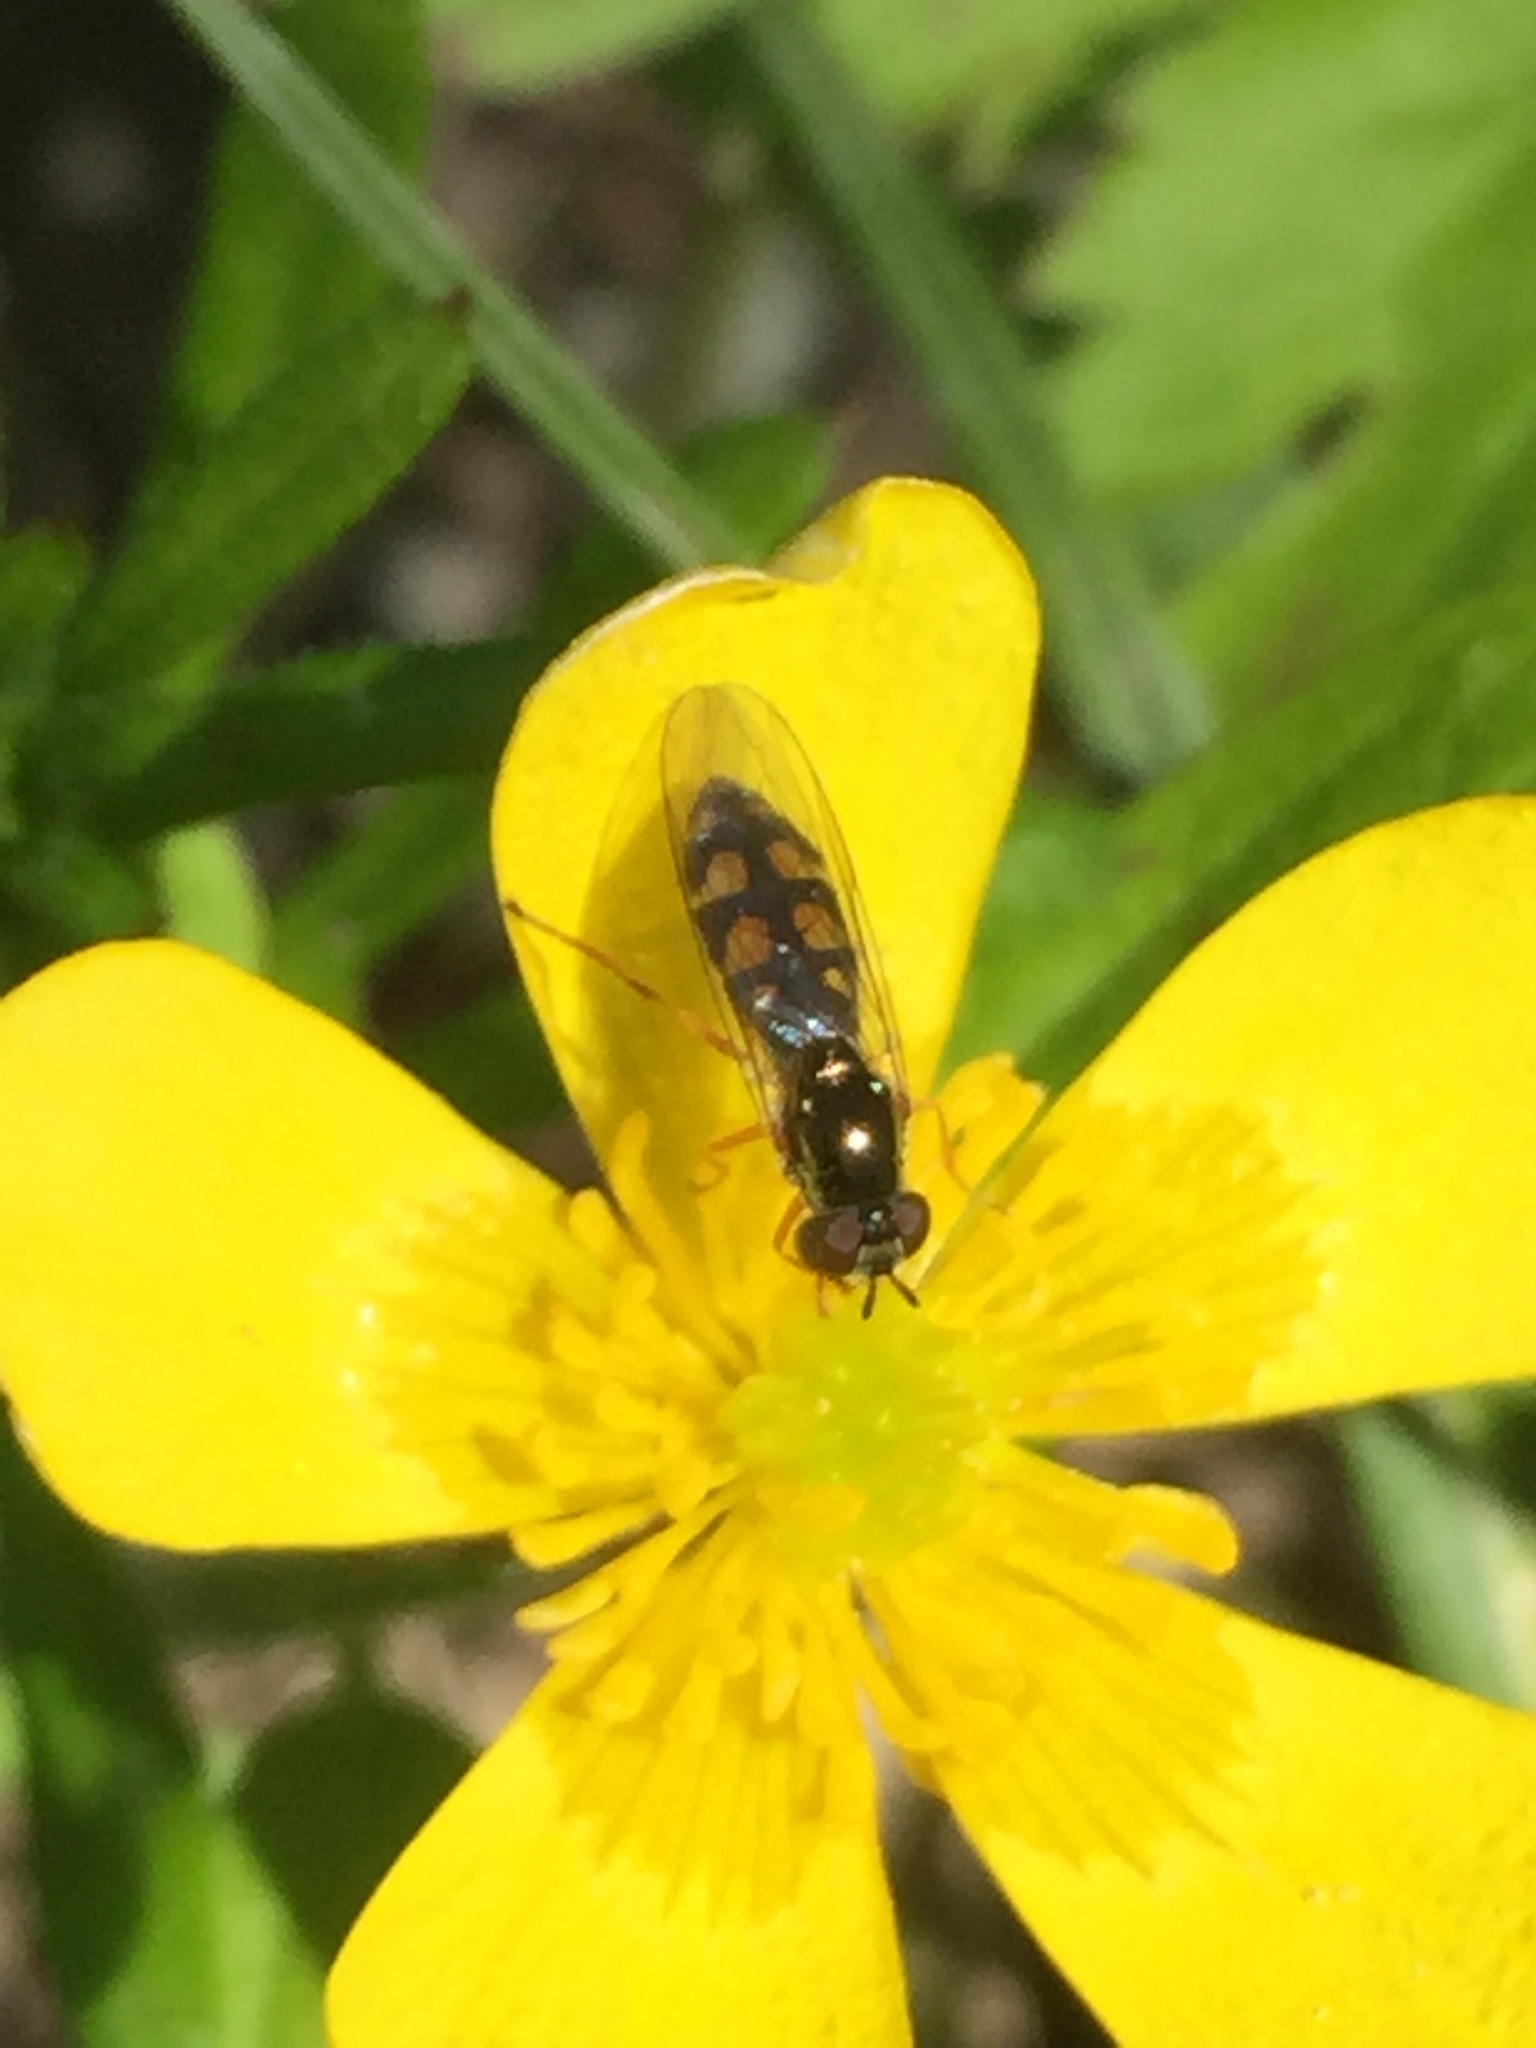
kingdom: Animalia
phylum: Arthropoda
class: Insecta
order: Diptera
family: Syrphidae
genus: Melanostoma
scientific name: Melanostoma mellina
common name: Hover fly
